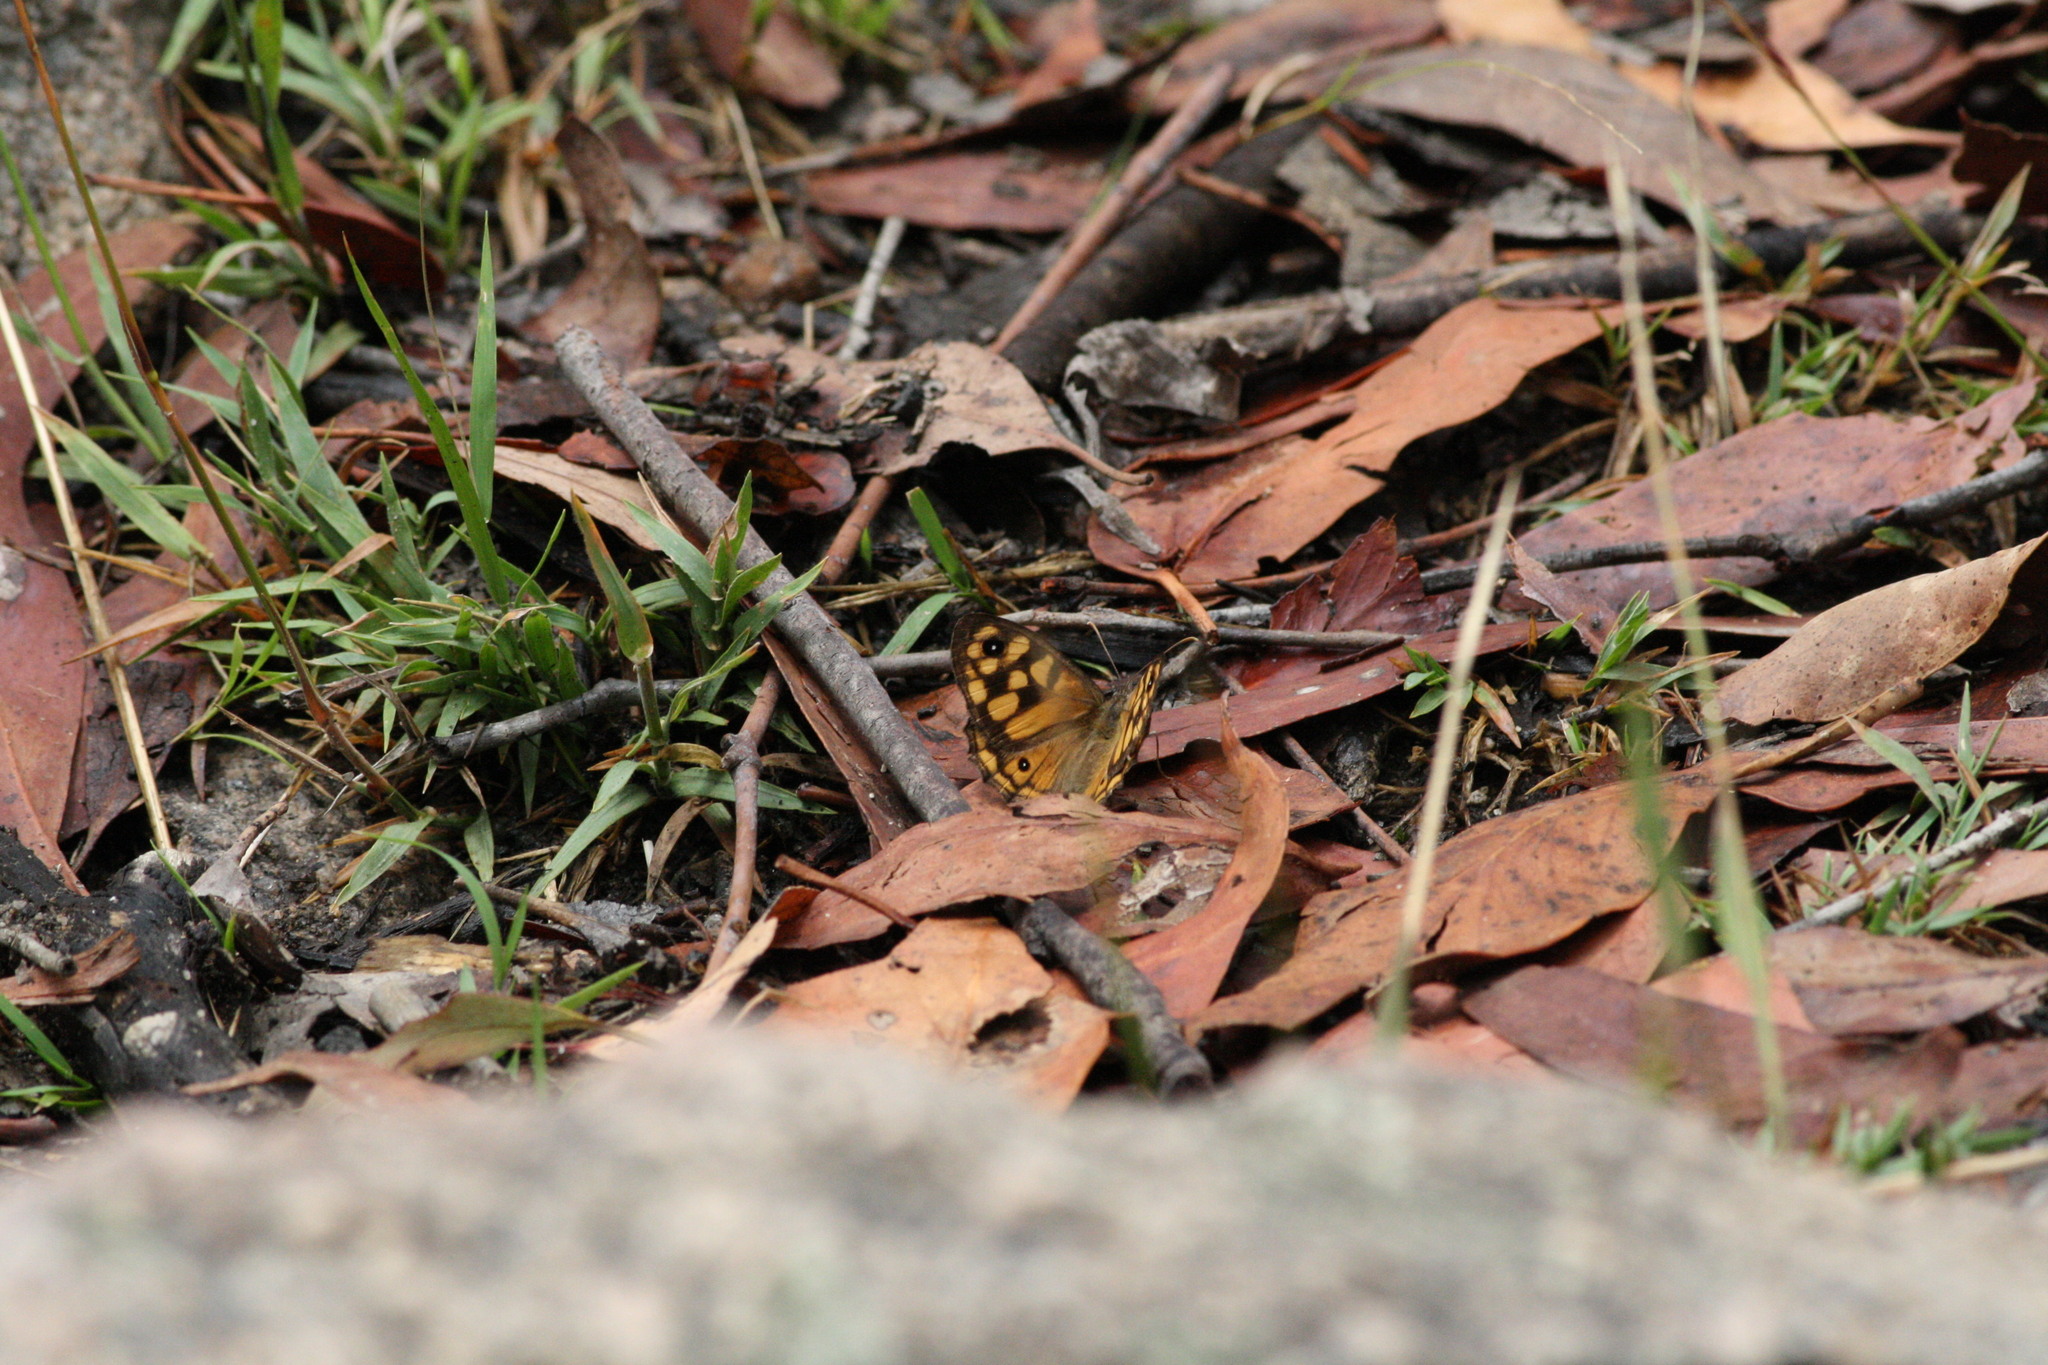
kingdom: Animalia
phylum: Arthropoda
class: Insecta
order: Lepidoptera
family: Nymphalidae
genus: Geitoneura
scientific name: Geitoneura klugii
